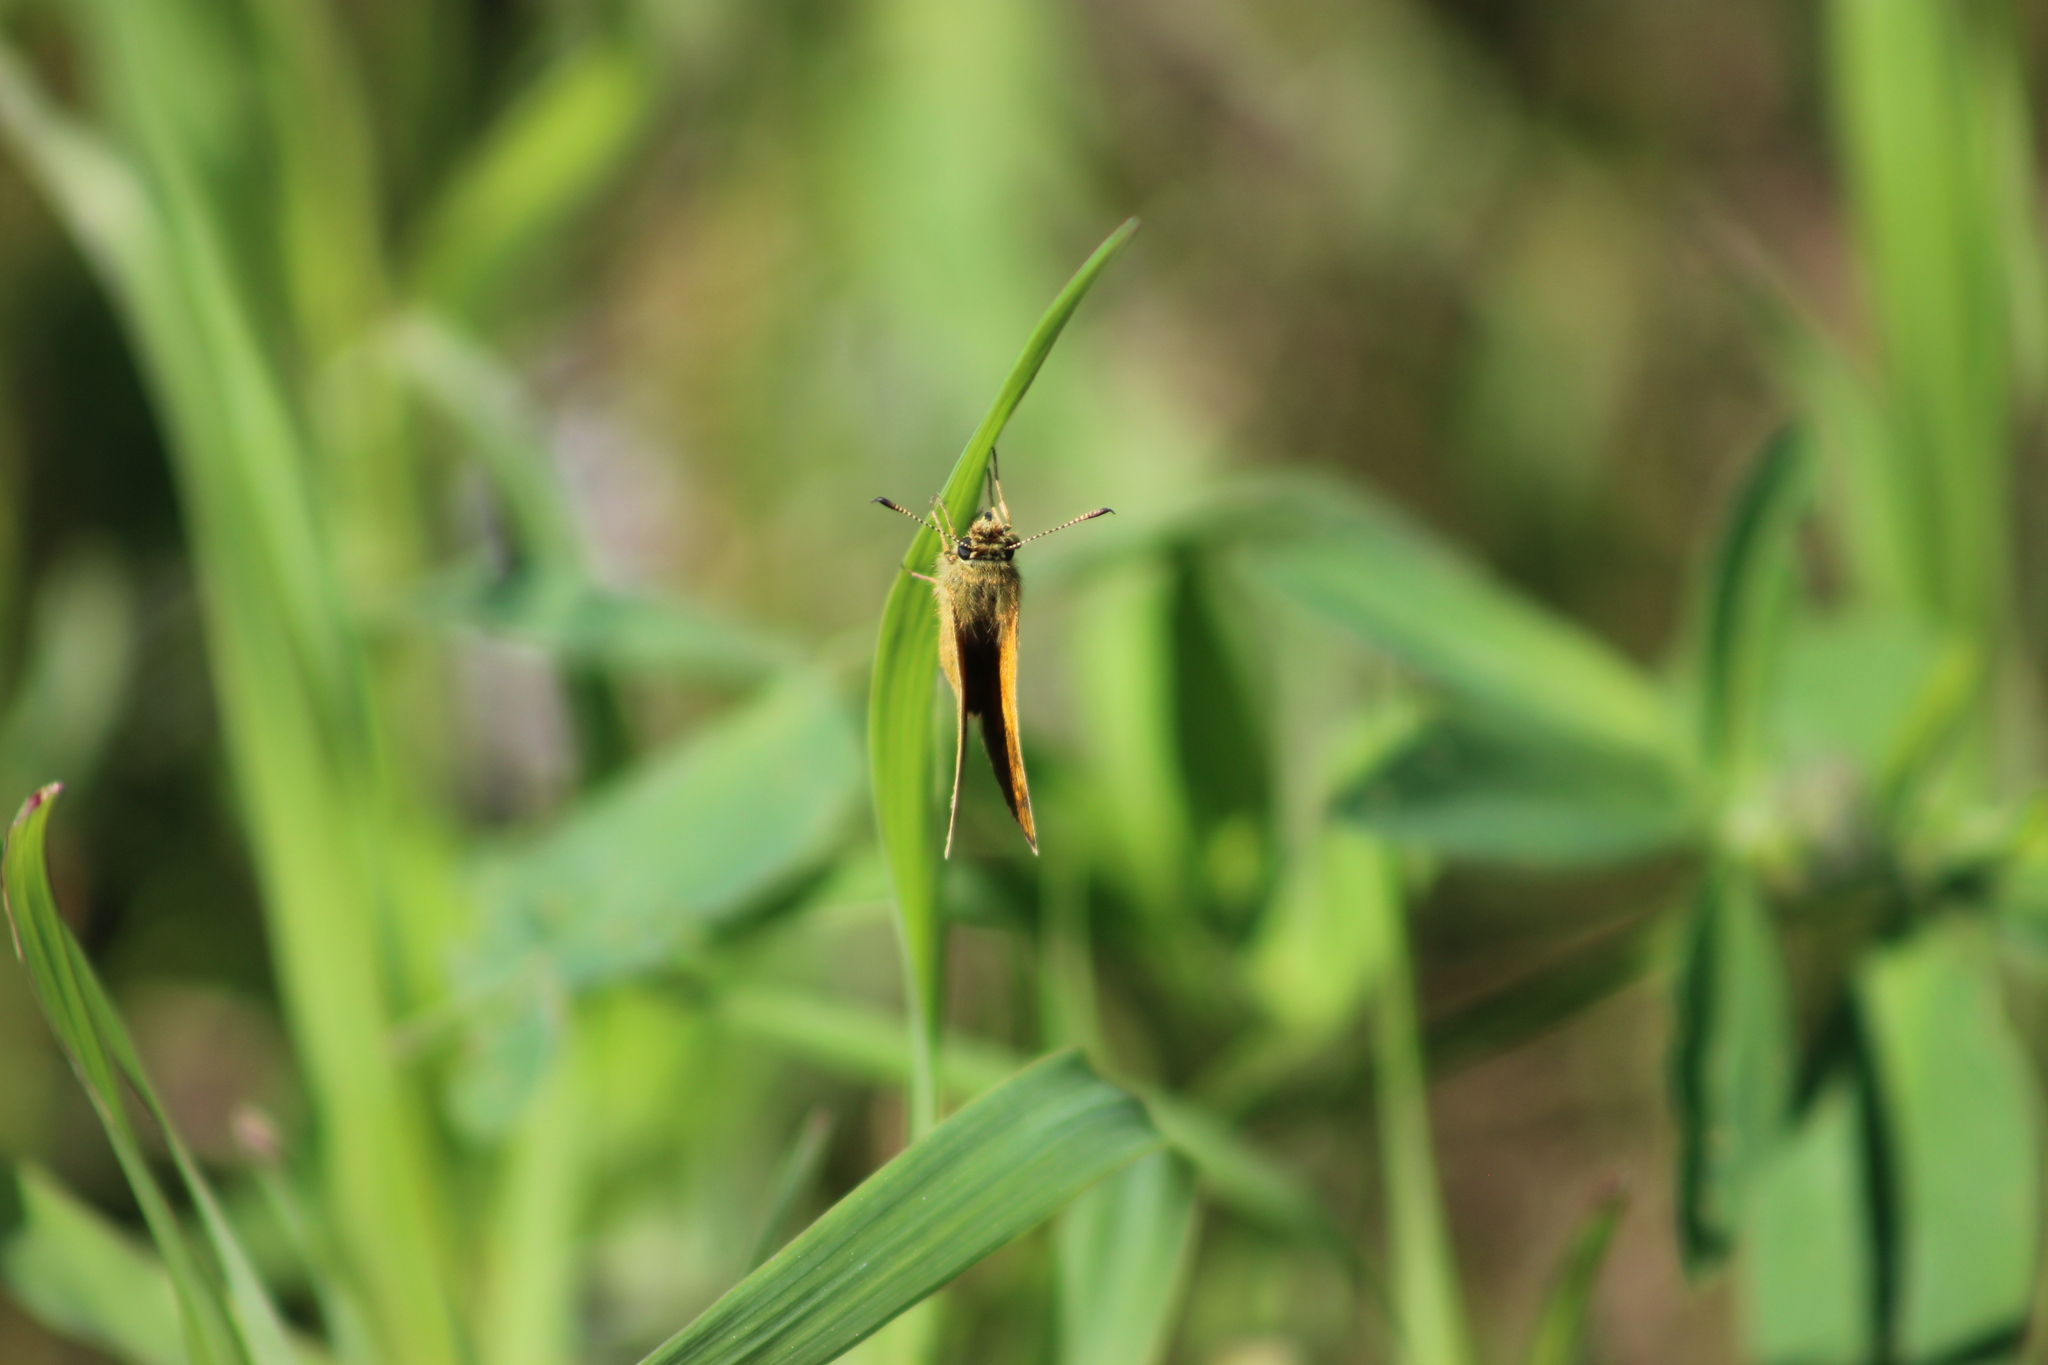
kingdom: Animalia
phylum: Arthropoda
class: Insecta
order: Lepidoptera
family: Hesperiidae
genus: Ochlodes
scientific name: Ochlodes venata
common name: Large skipper
